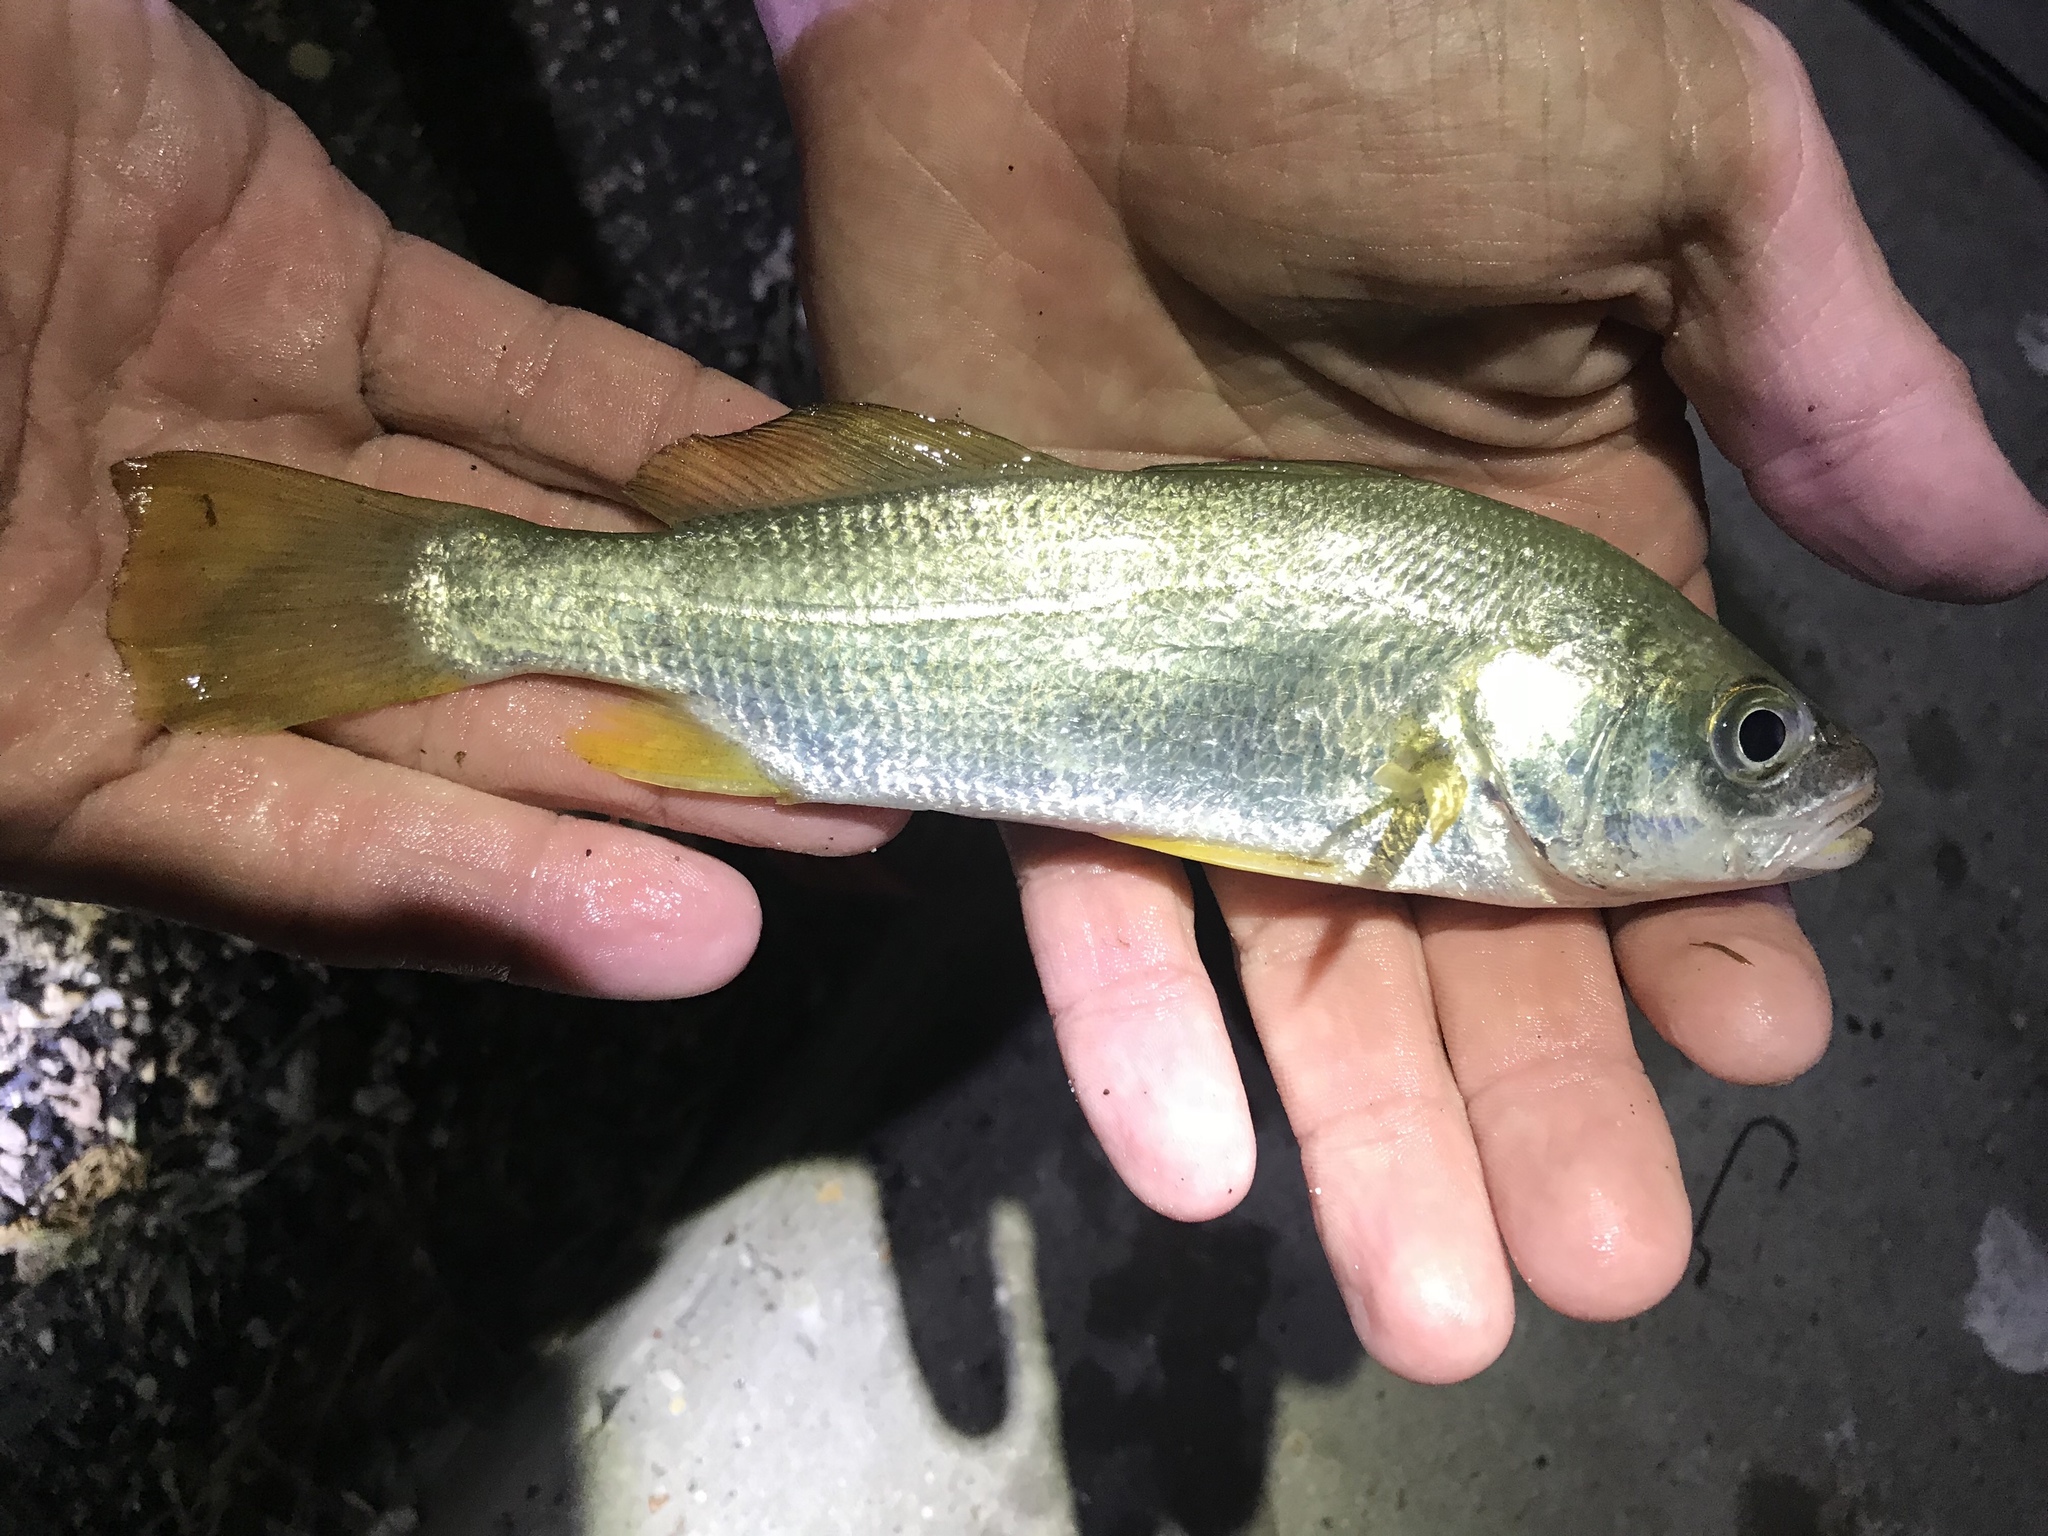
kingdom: Animalia
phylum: Chordata
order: Perciformes
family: Sciaenidae
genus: Bairdiella
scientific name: Bairdiella chrysoura
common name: Silver perch
